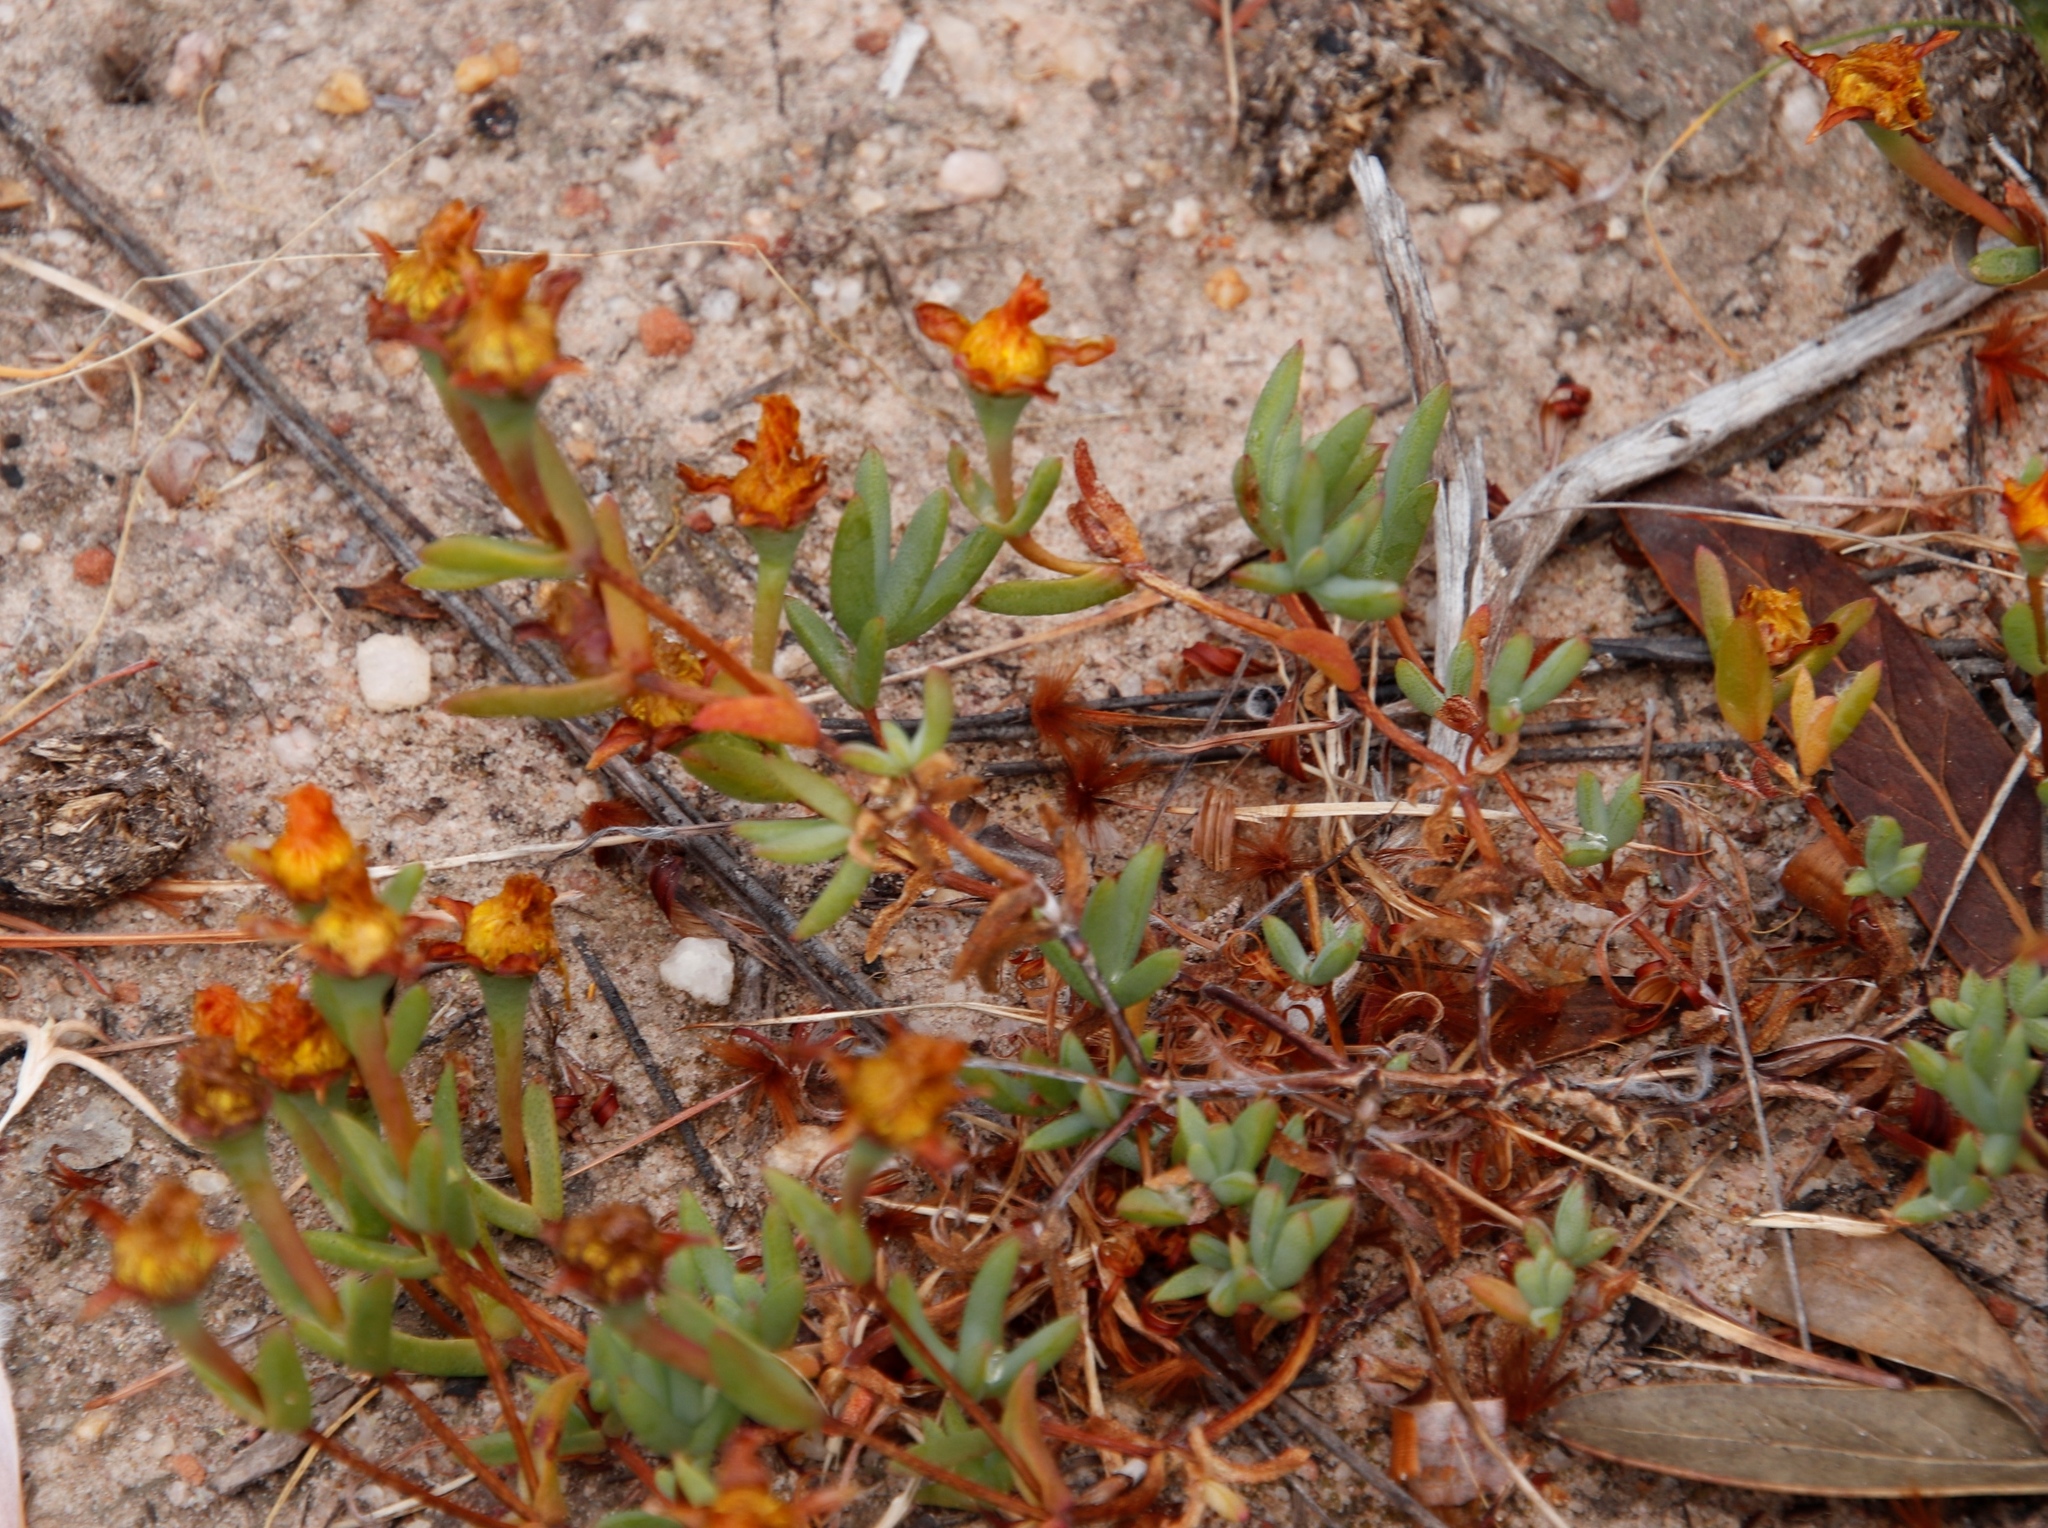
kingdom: Plantae
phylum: Tracheophyta
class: Magnoliopsida
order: Caryophyllales
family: Aizoaceae
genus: Lampranthus
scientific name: Lampranthus glaucus
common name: Noonflower
